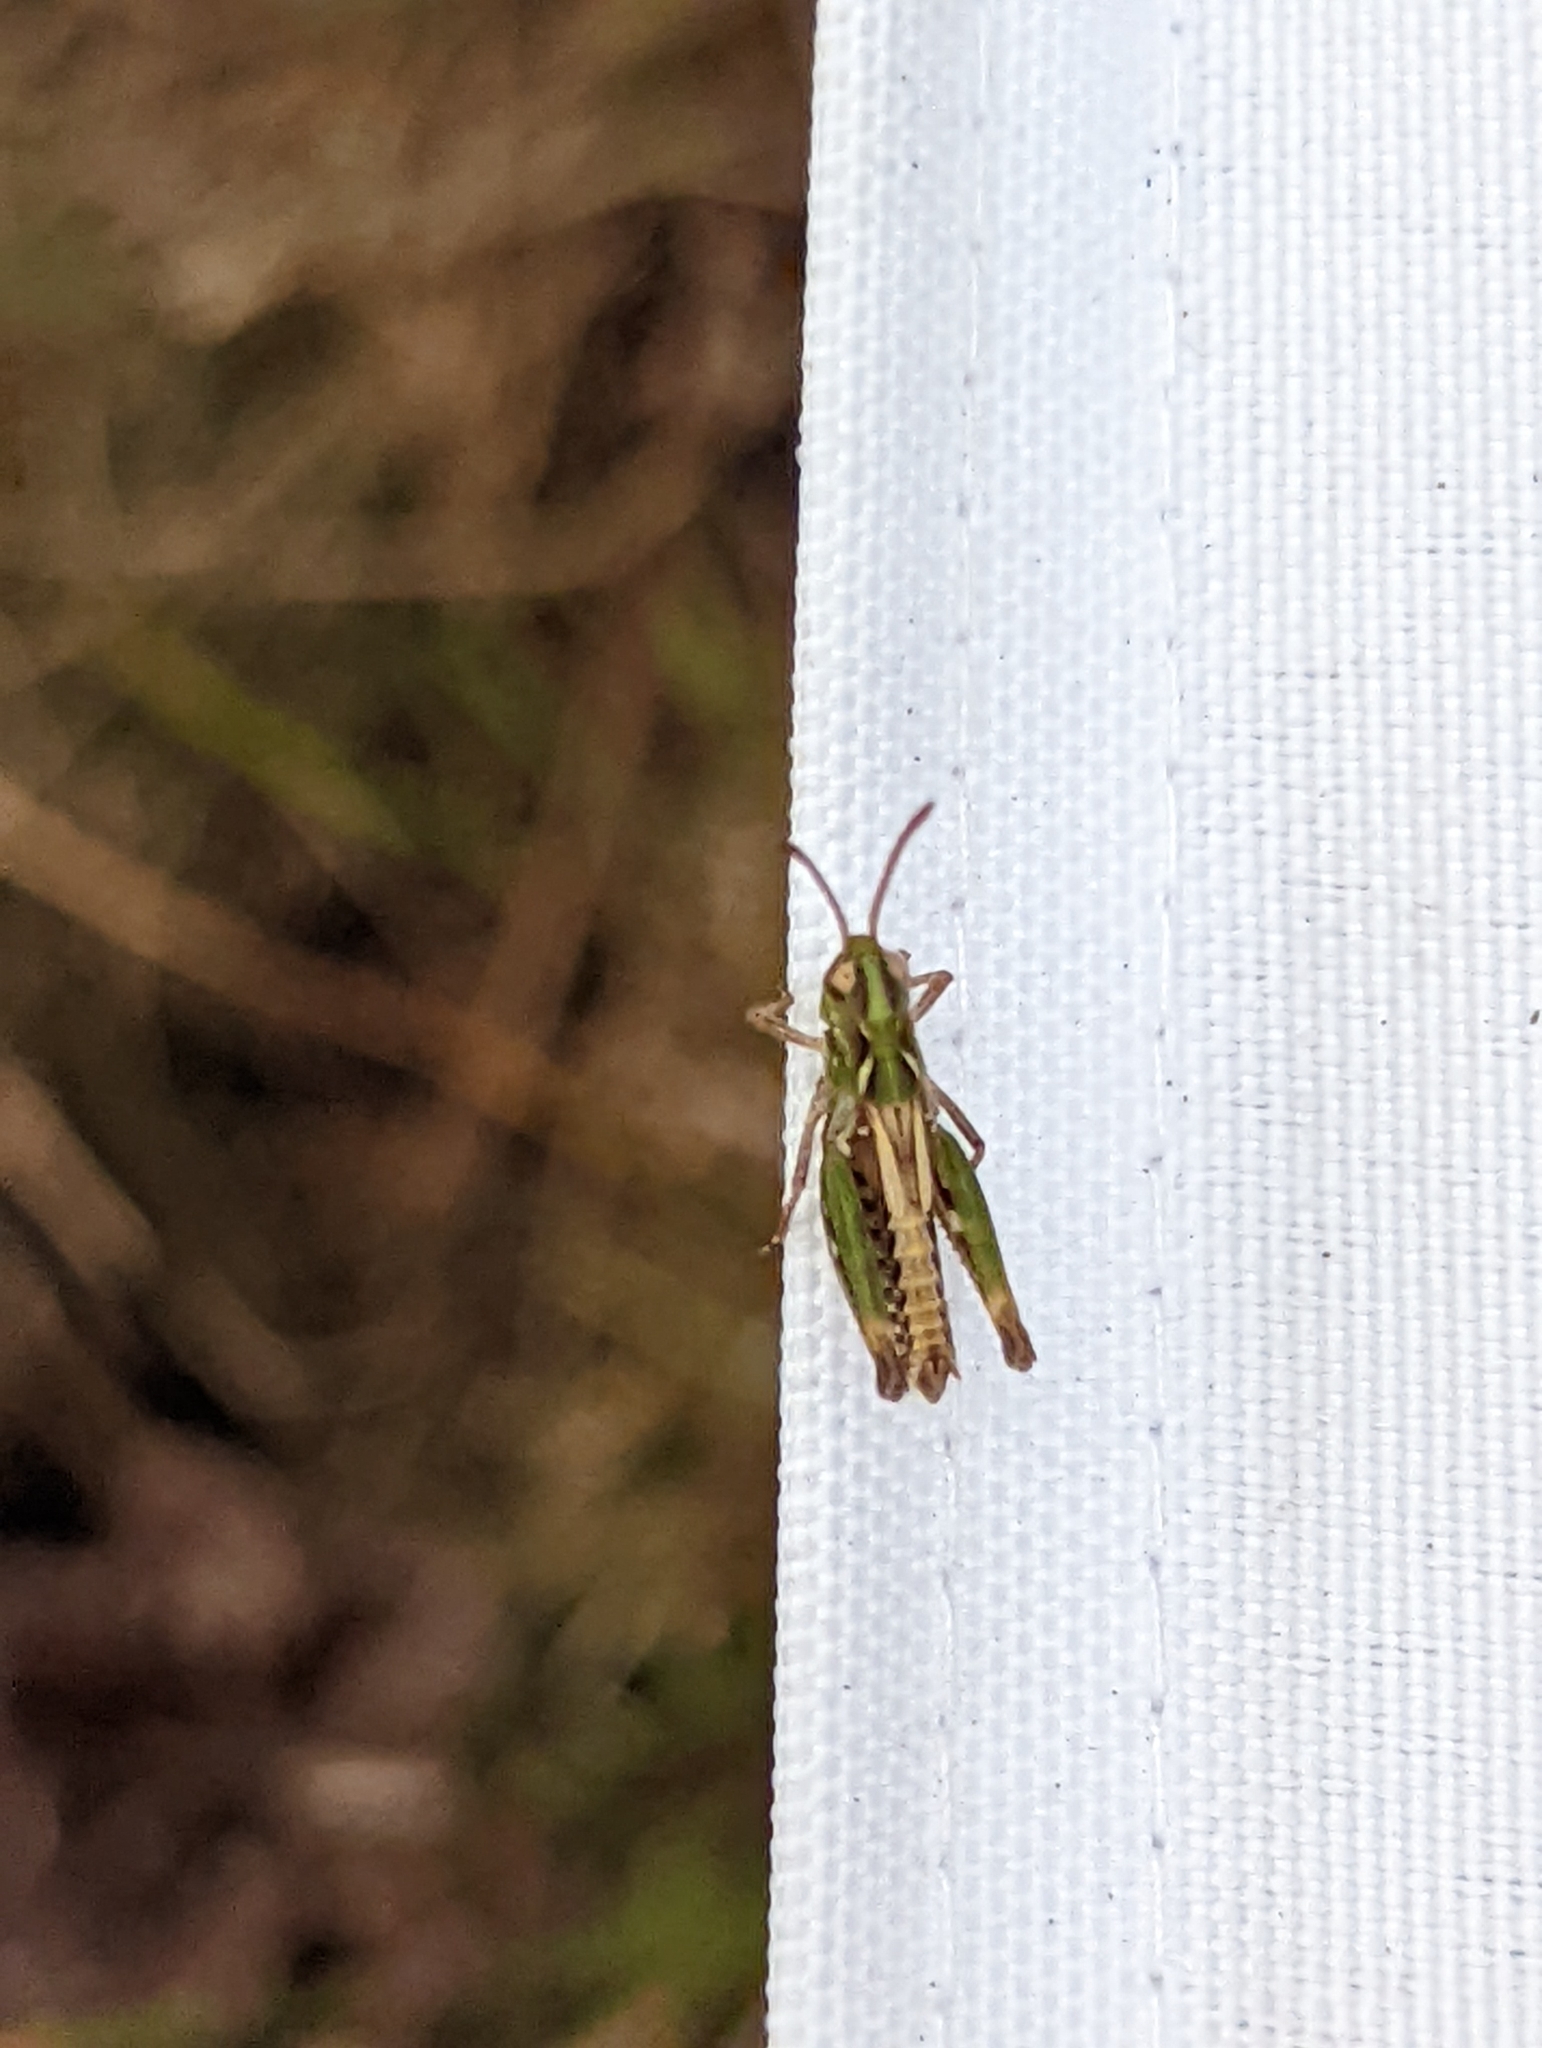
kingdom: Animalia
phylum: Arthropoda
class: Insecta
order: Orthoptera
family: Acrididae
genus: Myrmeleotettix
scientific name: Myrmeleotettix maculatus
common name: Mottled grasshopper
